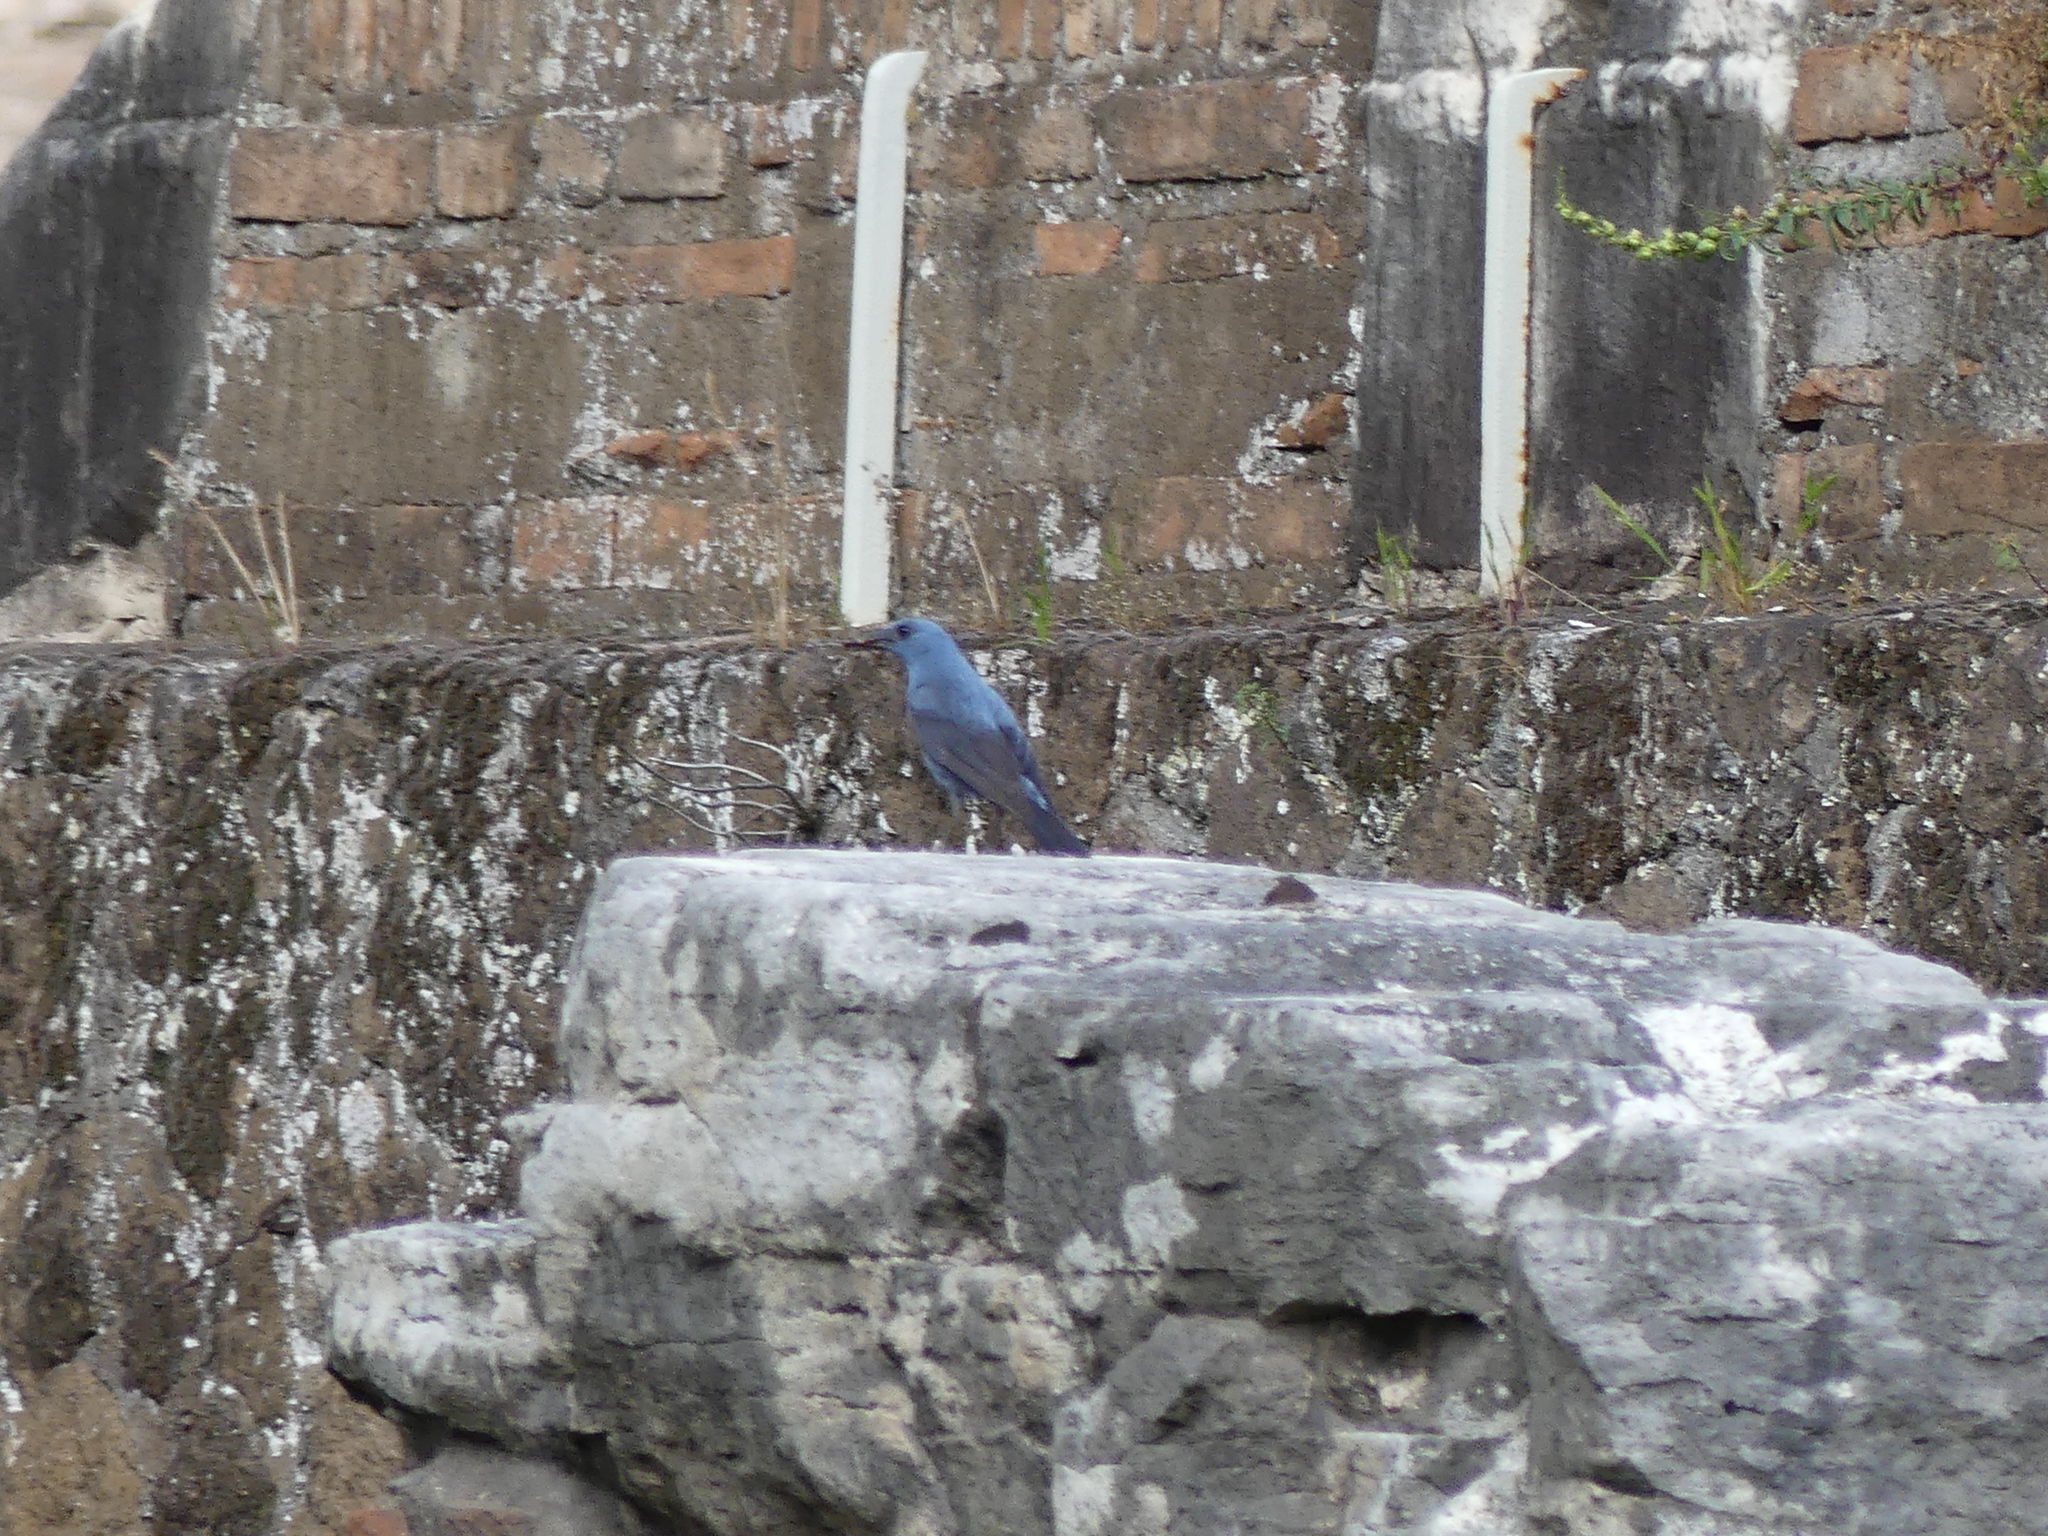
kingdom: Animalia
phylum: Chordata
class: Aves
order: Passeriformes
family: Muscicapidae
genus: Monticola
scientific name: Monticola solitarius
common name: Blue rock thrush
